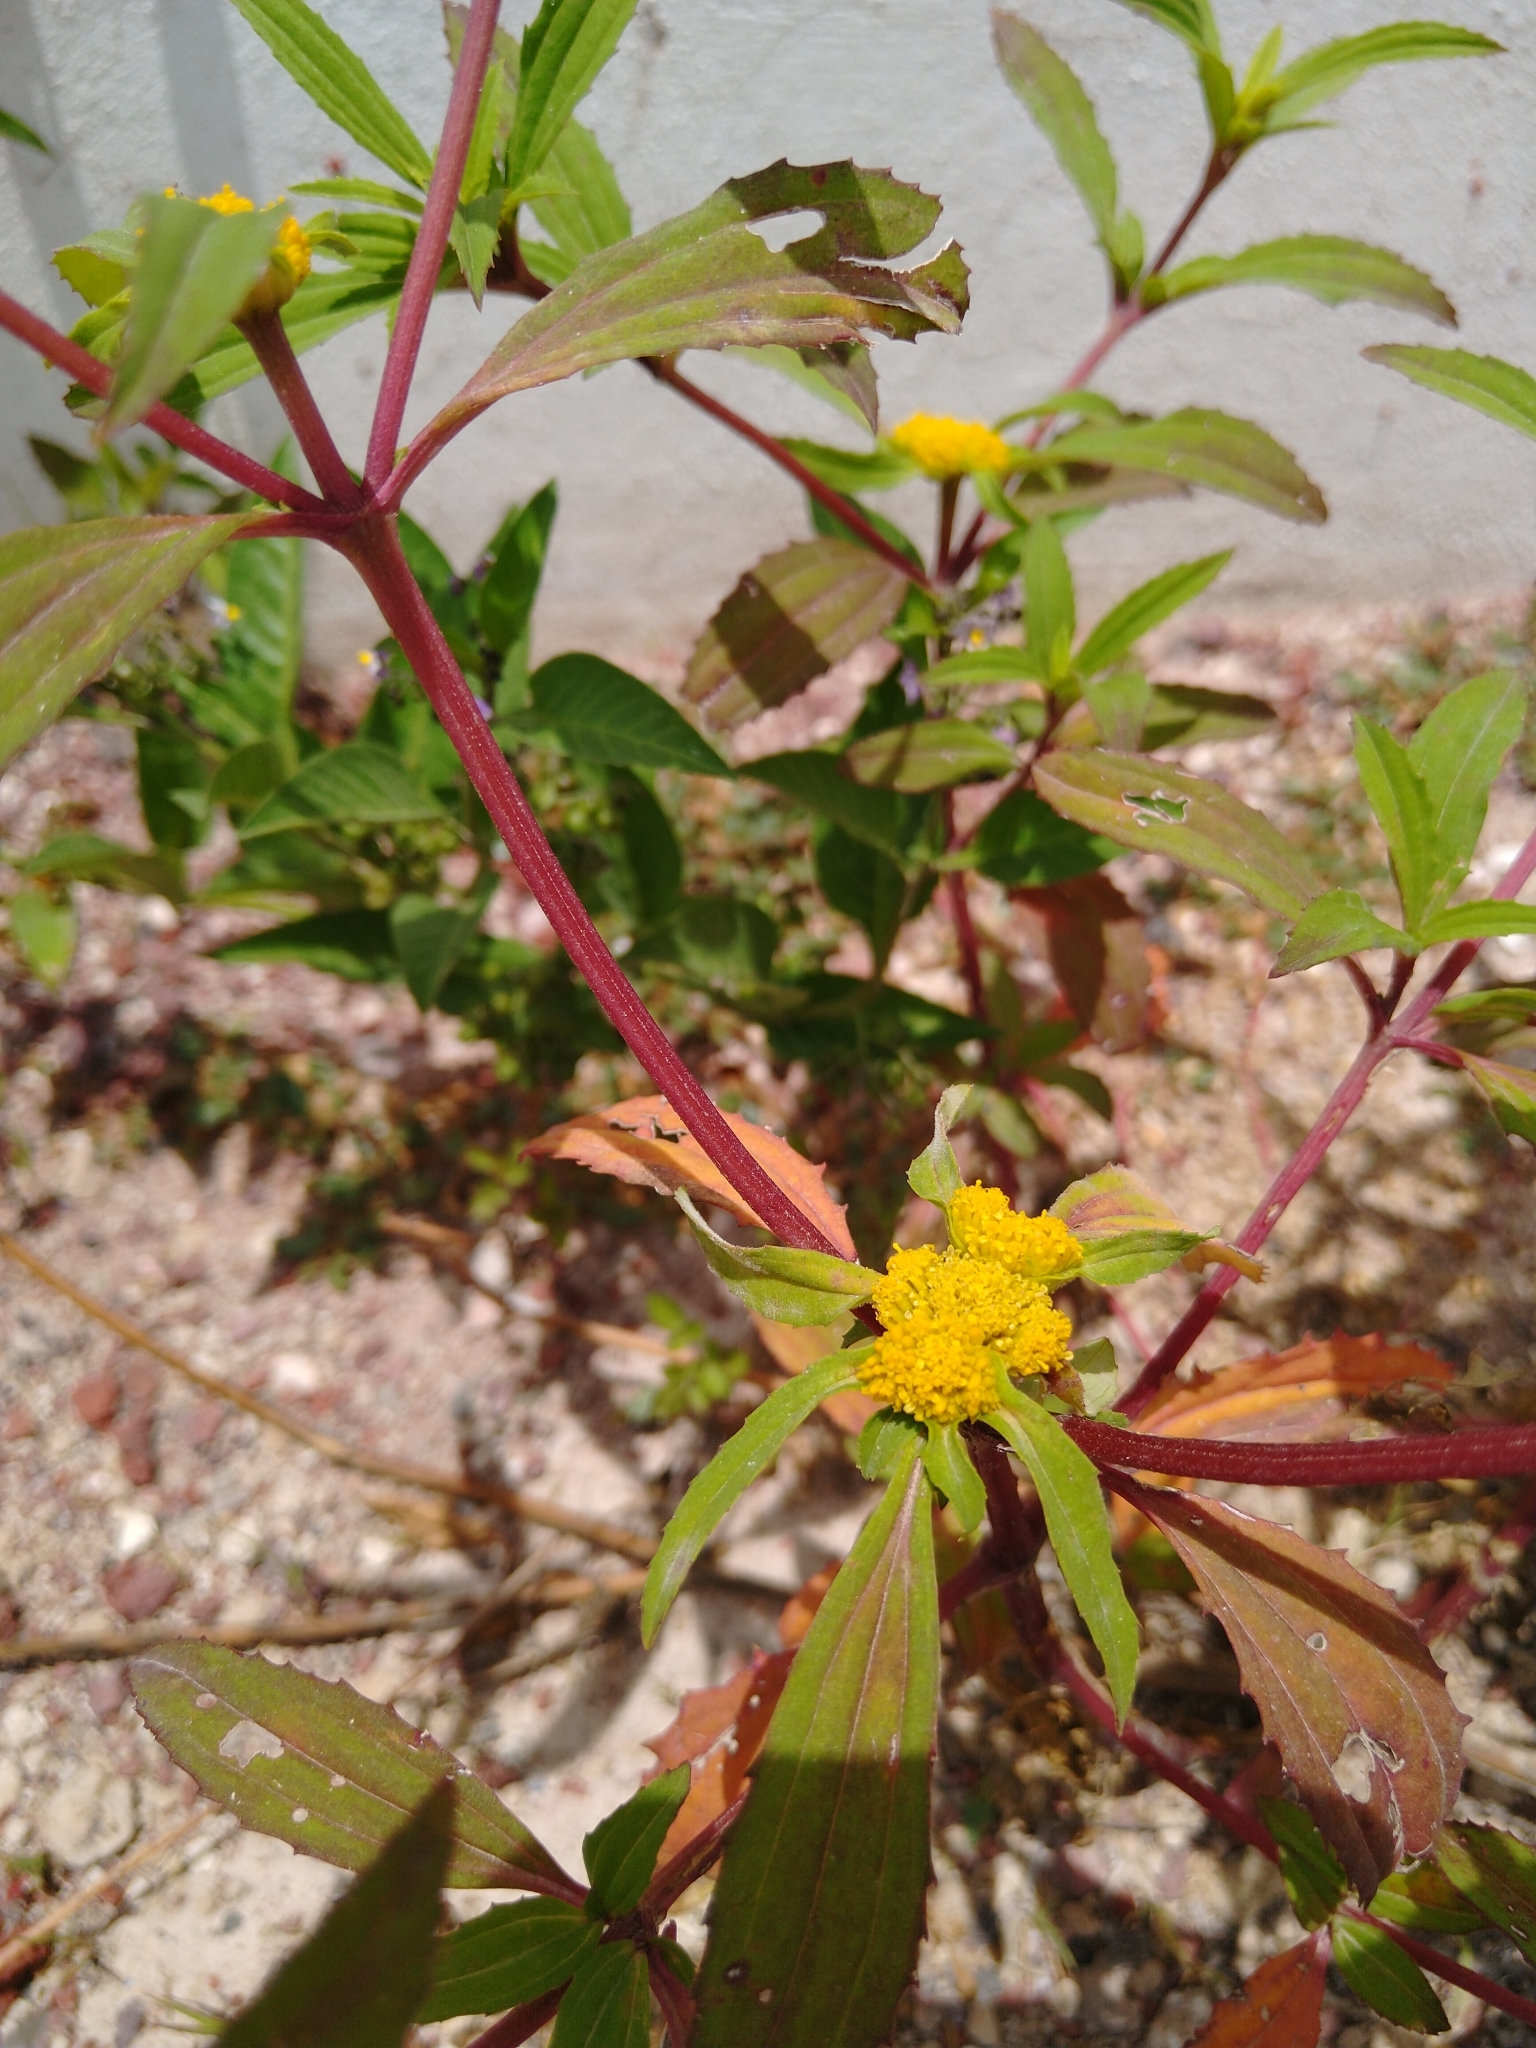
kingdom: Plantae
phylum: Tracheophyta
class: Magnoliopsida
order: Asterales
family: Asteraceae
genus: Flaveria
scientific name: Flaveria trinervia
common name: Clustered yellowtops
